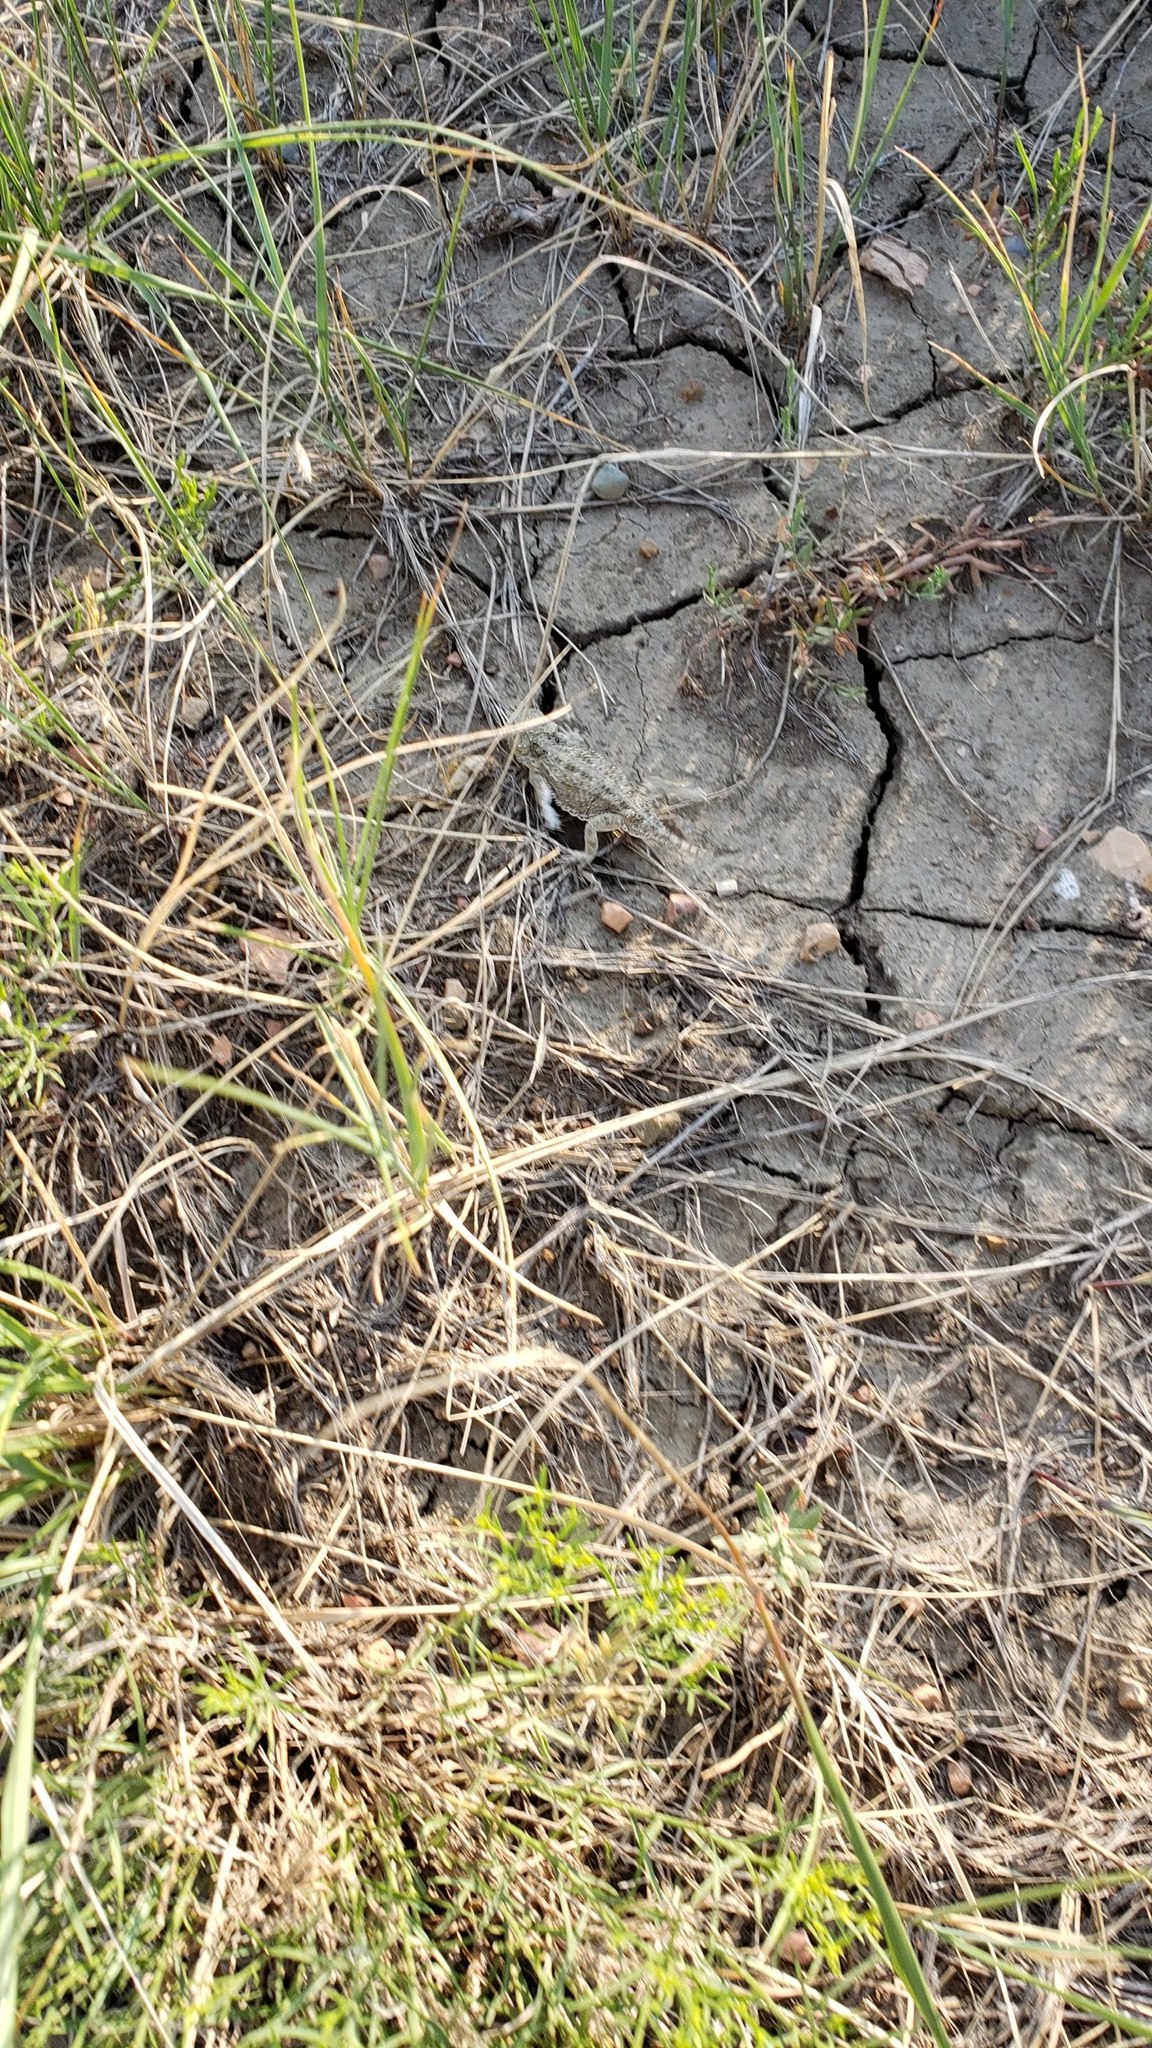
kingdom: Animalia
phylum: Chordata
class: Squamata
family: Phrynosomatidae
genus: Phrynosoma
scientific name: Phrynosoma hernandesi
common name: Greater short-horned lizard
